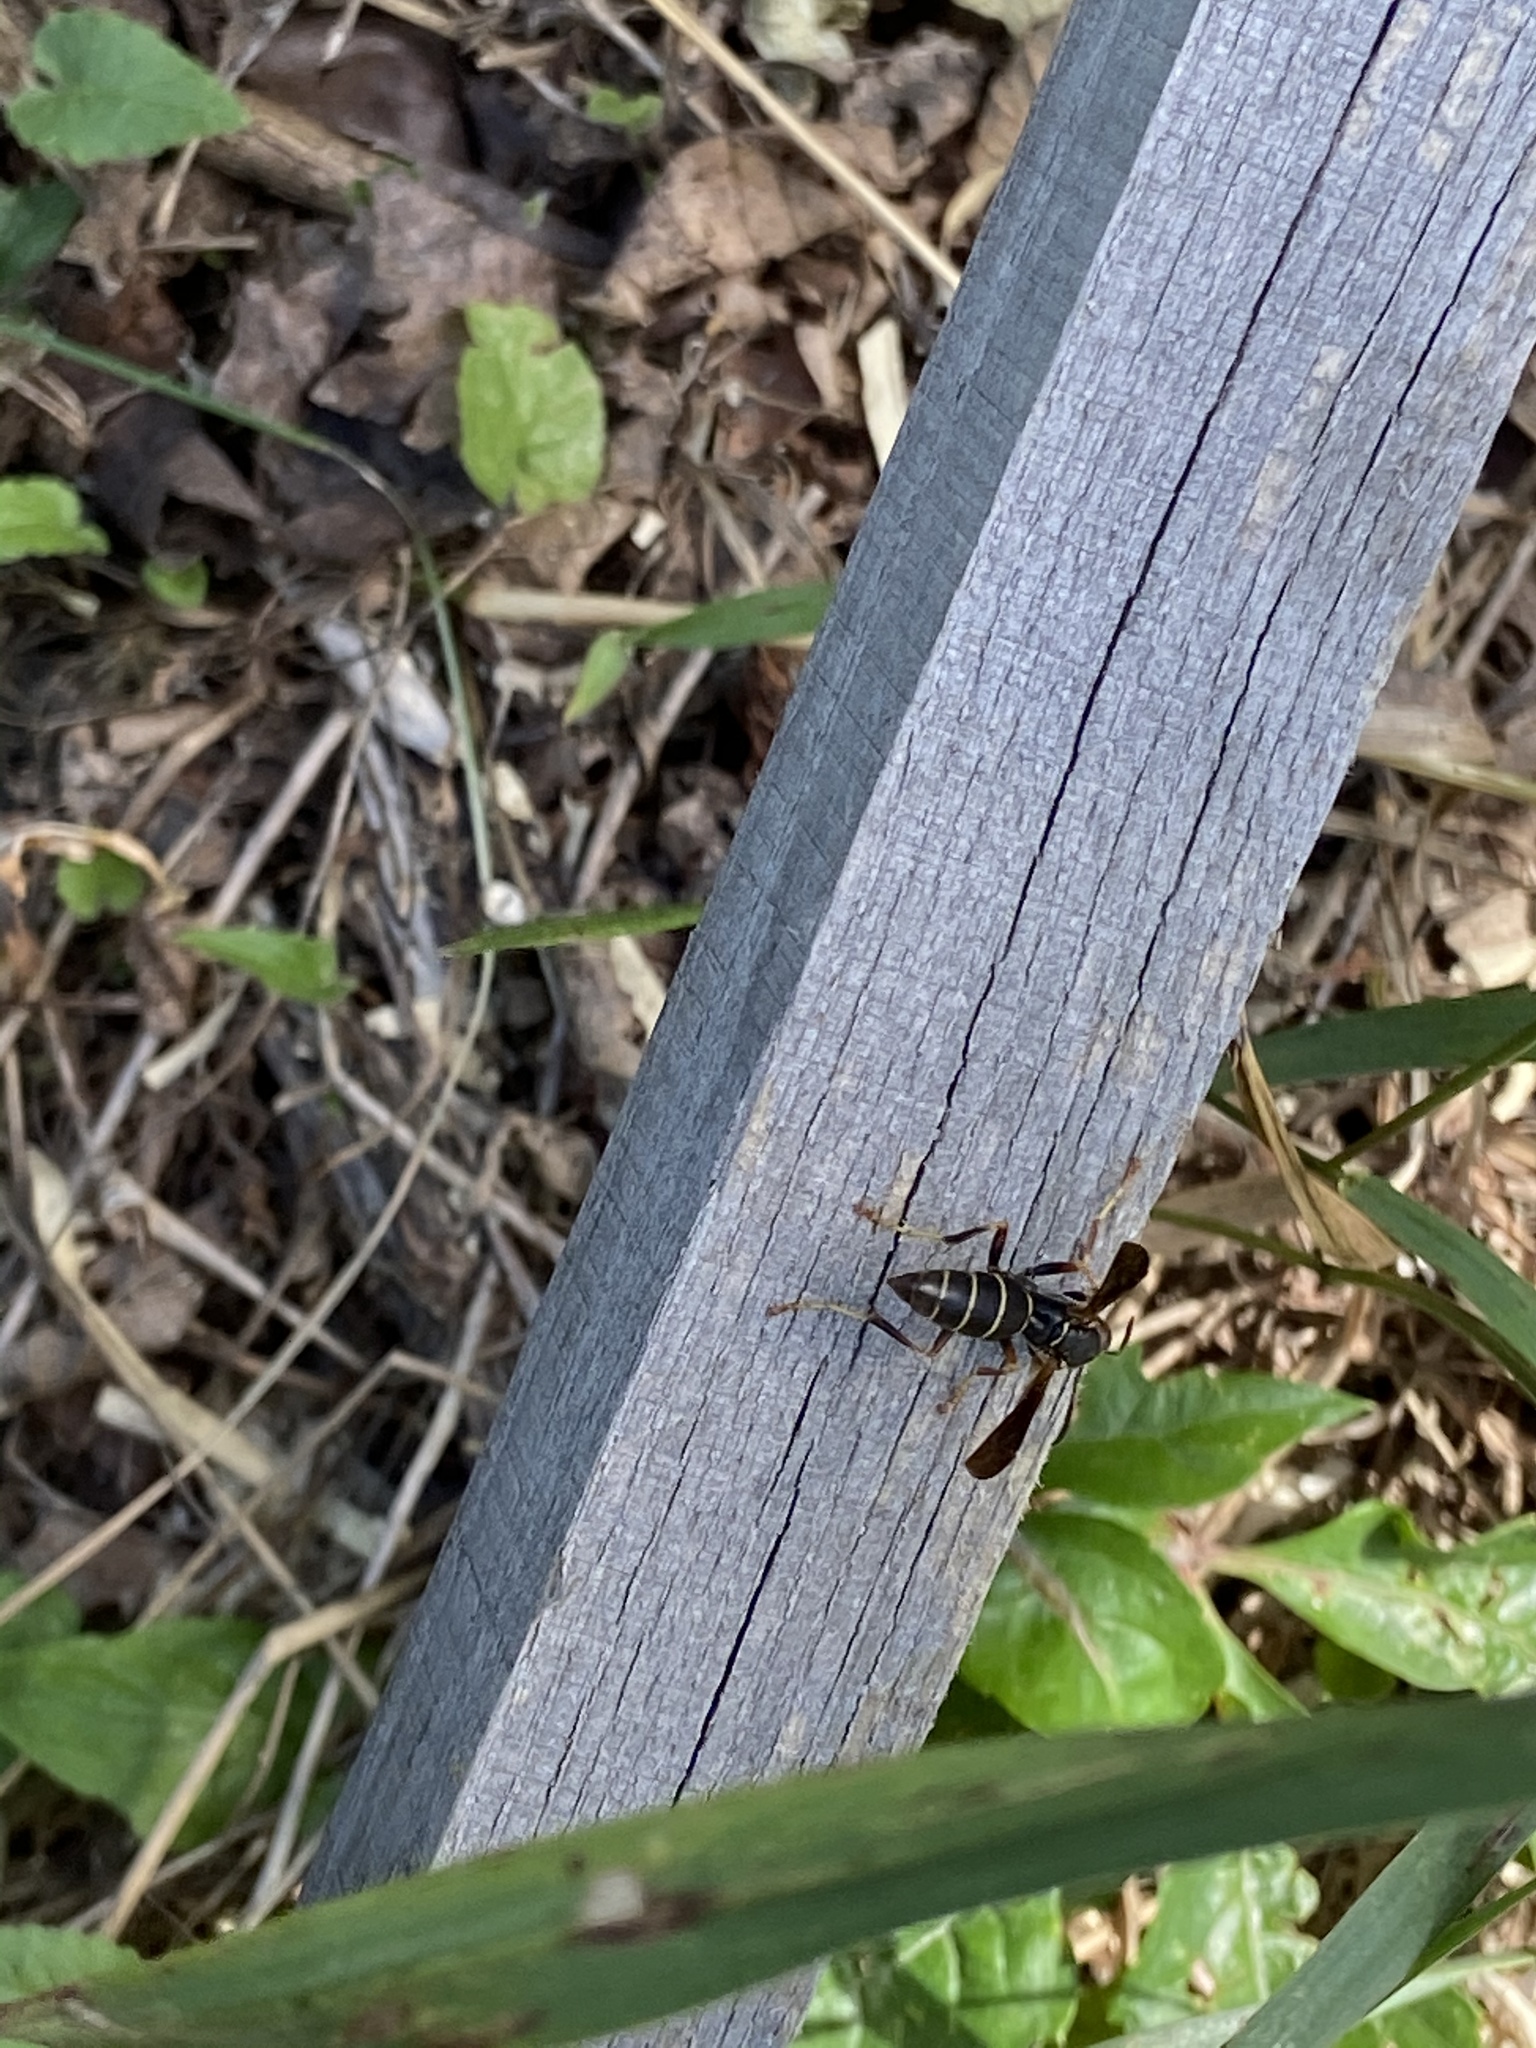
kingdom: Animalia
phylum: Arthropoda
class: Insecta
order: Hymenoptera
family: Eumenidae
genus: Polistes
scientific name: Polistes fuscatus
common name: Dark paper wasp
